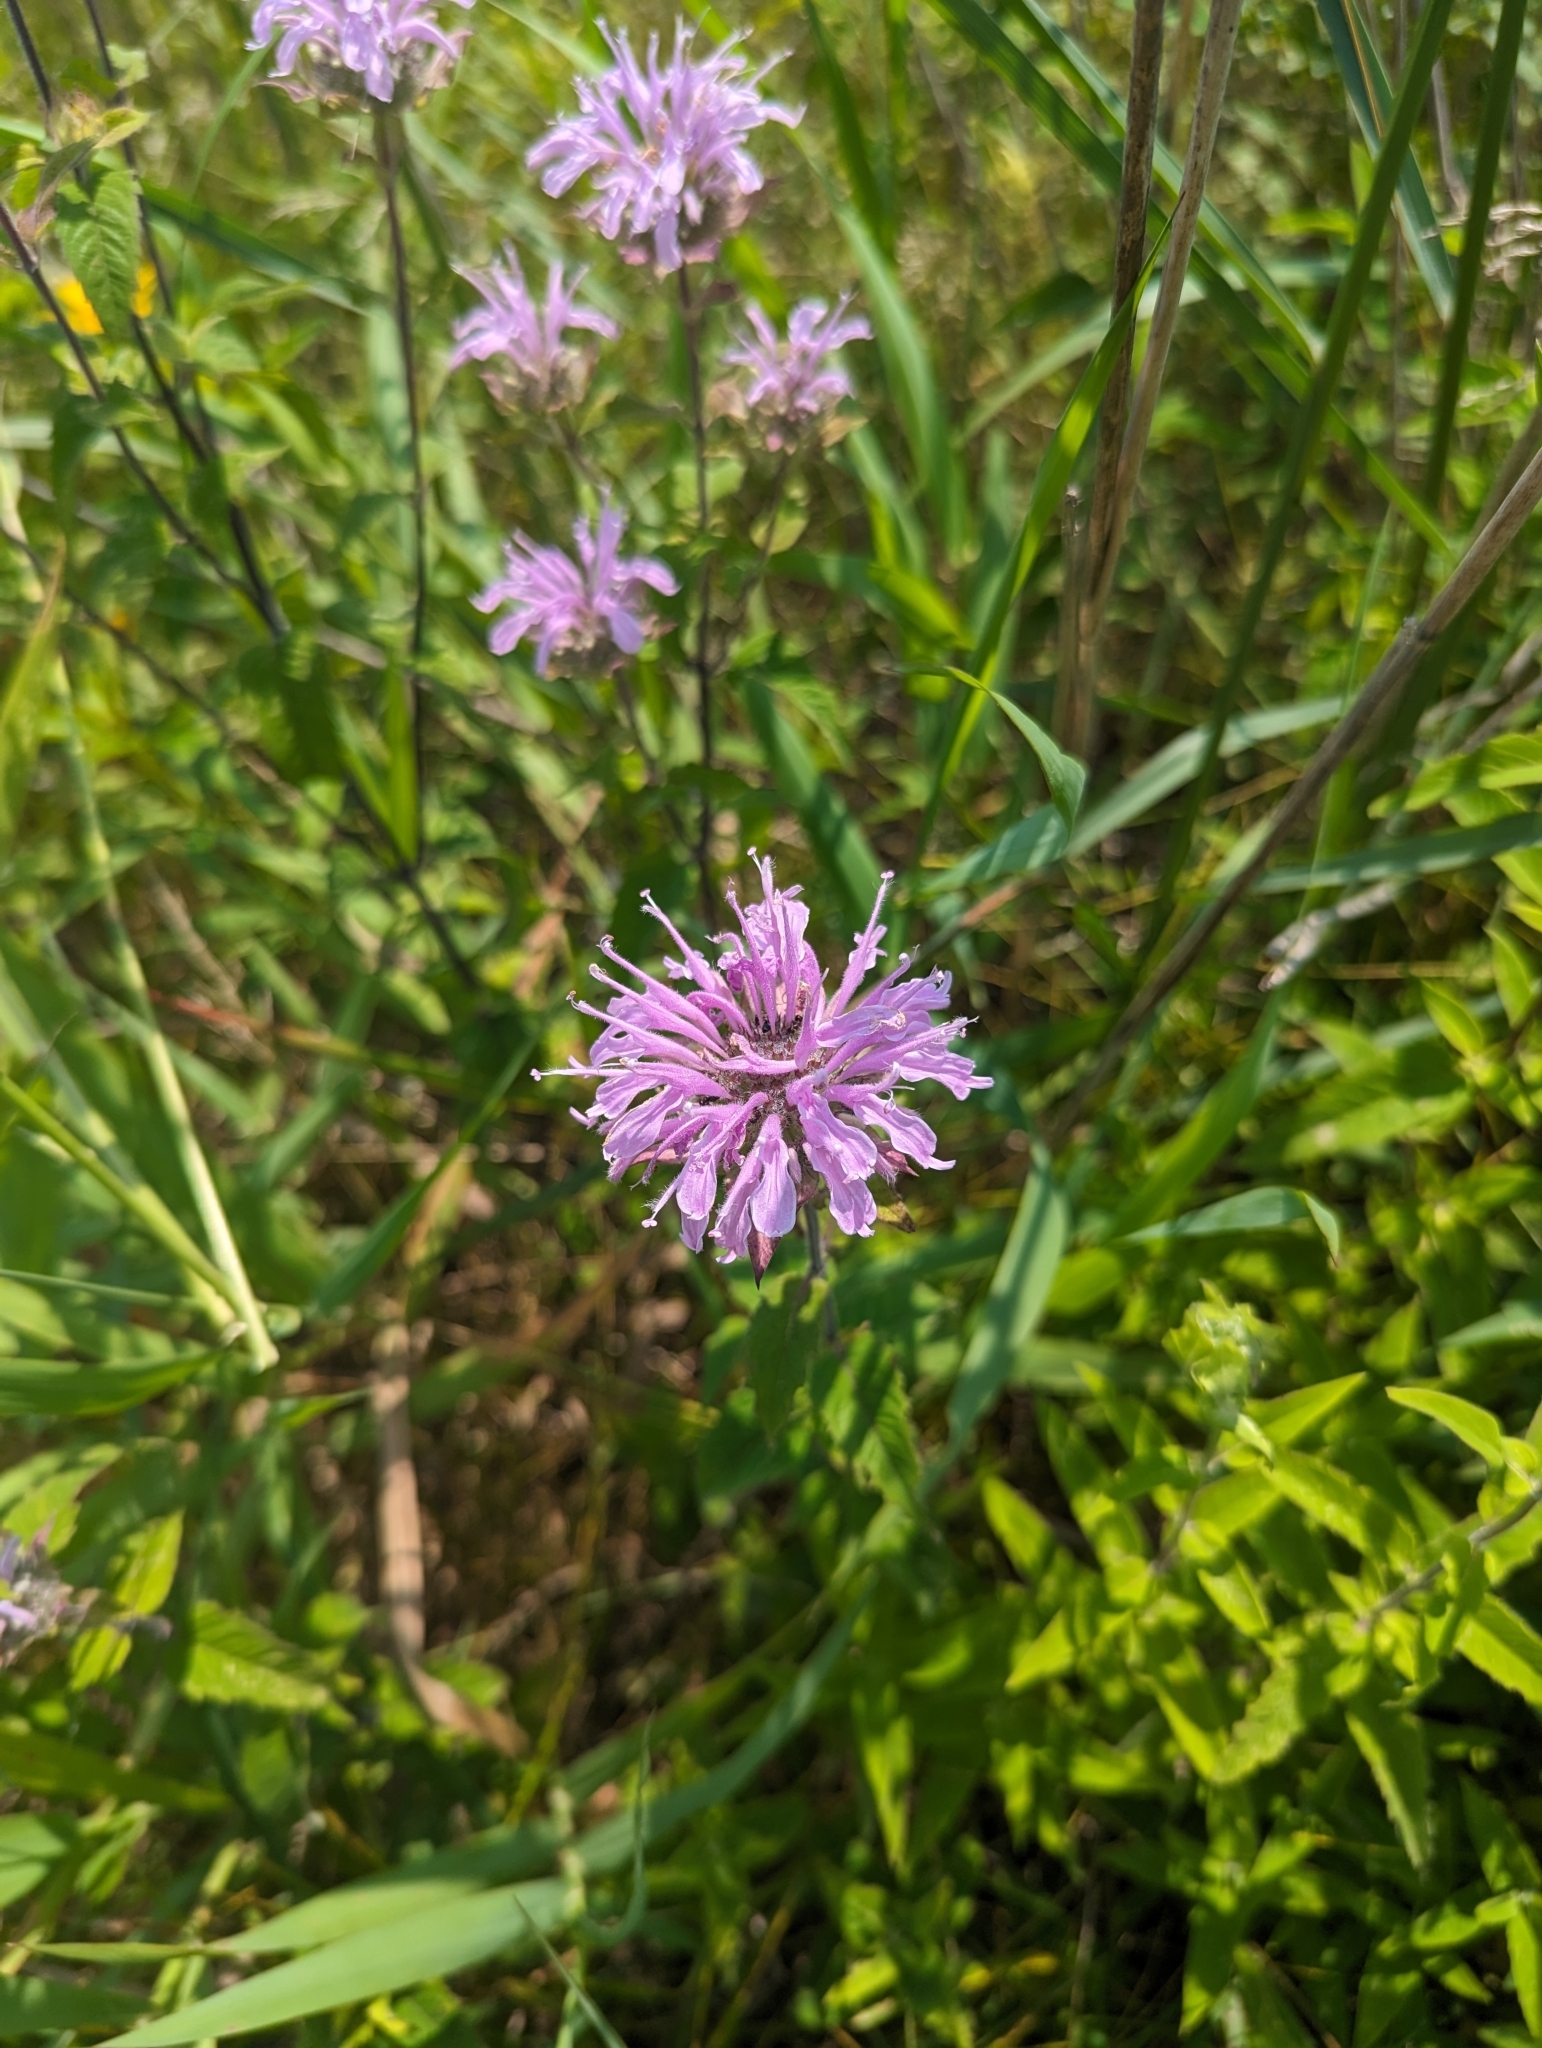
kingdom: Plantae
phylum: Tracheophyta
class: Magnoliopsida
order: Lamiales
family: Lamiaceae
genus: Monarda
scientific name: Monarda fistulosa
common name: Purple beebalm
